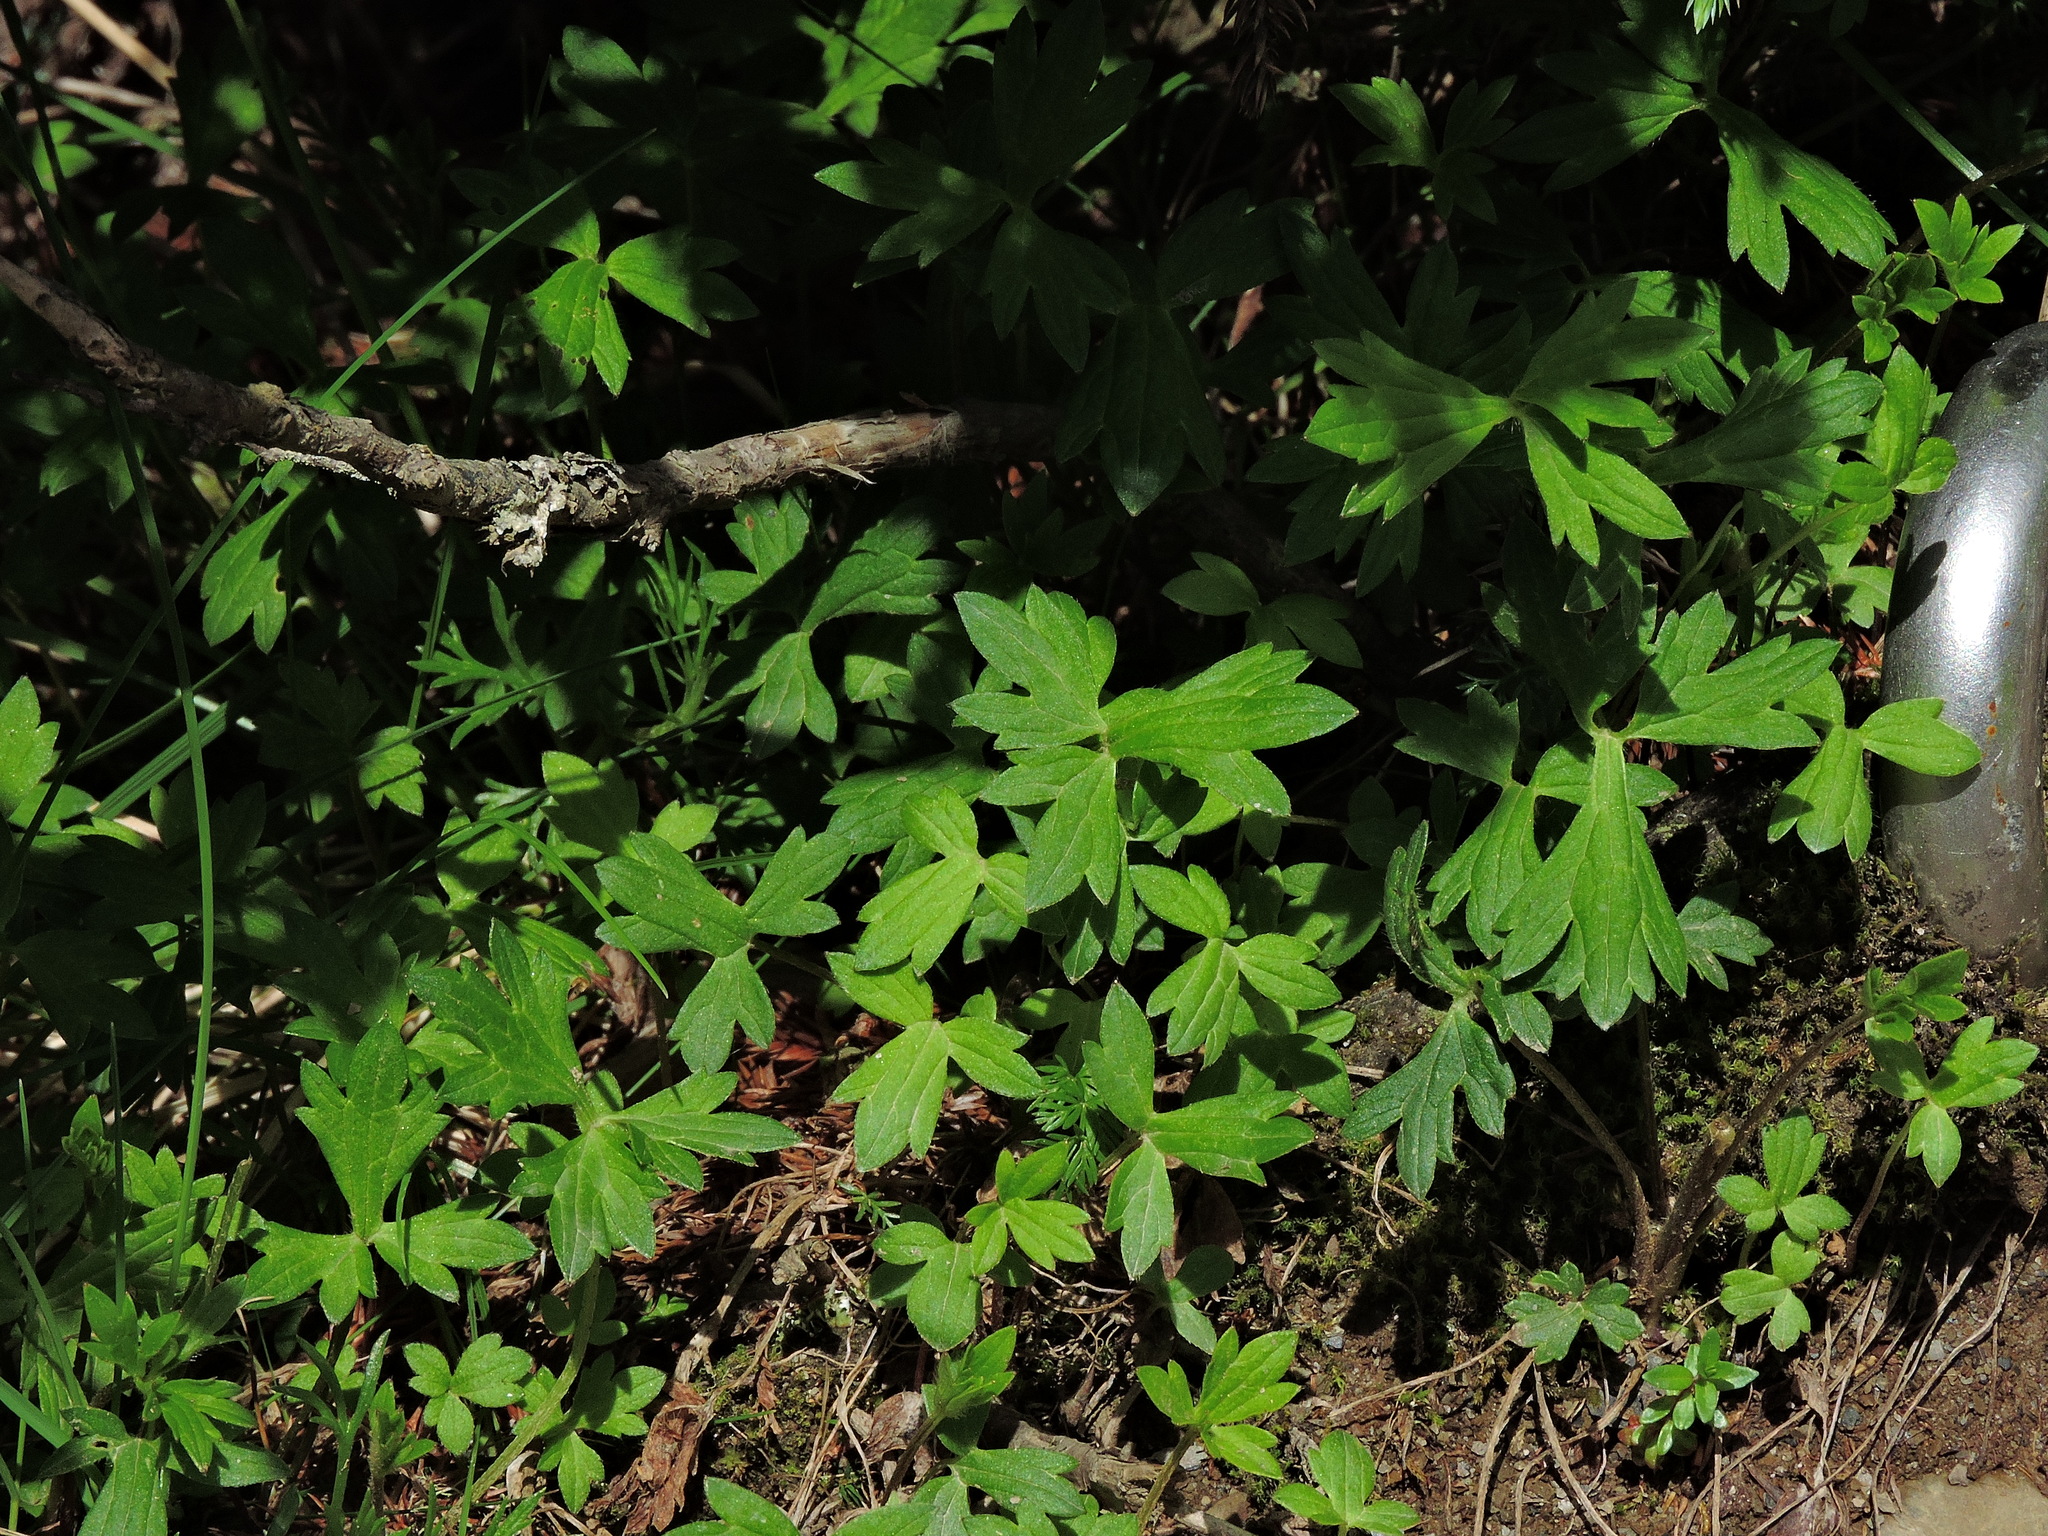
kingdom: Plantae
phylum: Tracheophyta
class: Magnoliopsida
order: Ranunculales
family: Ranunculaceae
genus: Ranunculus
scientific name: Ranunculus formosa-montanus
